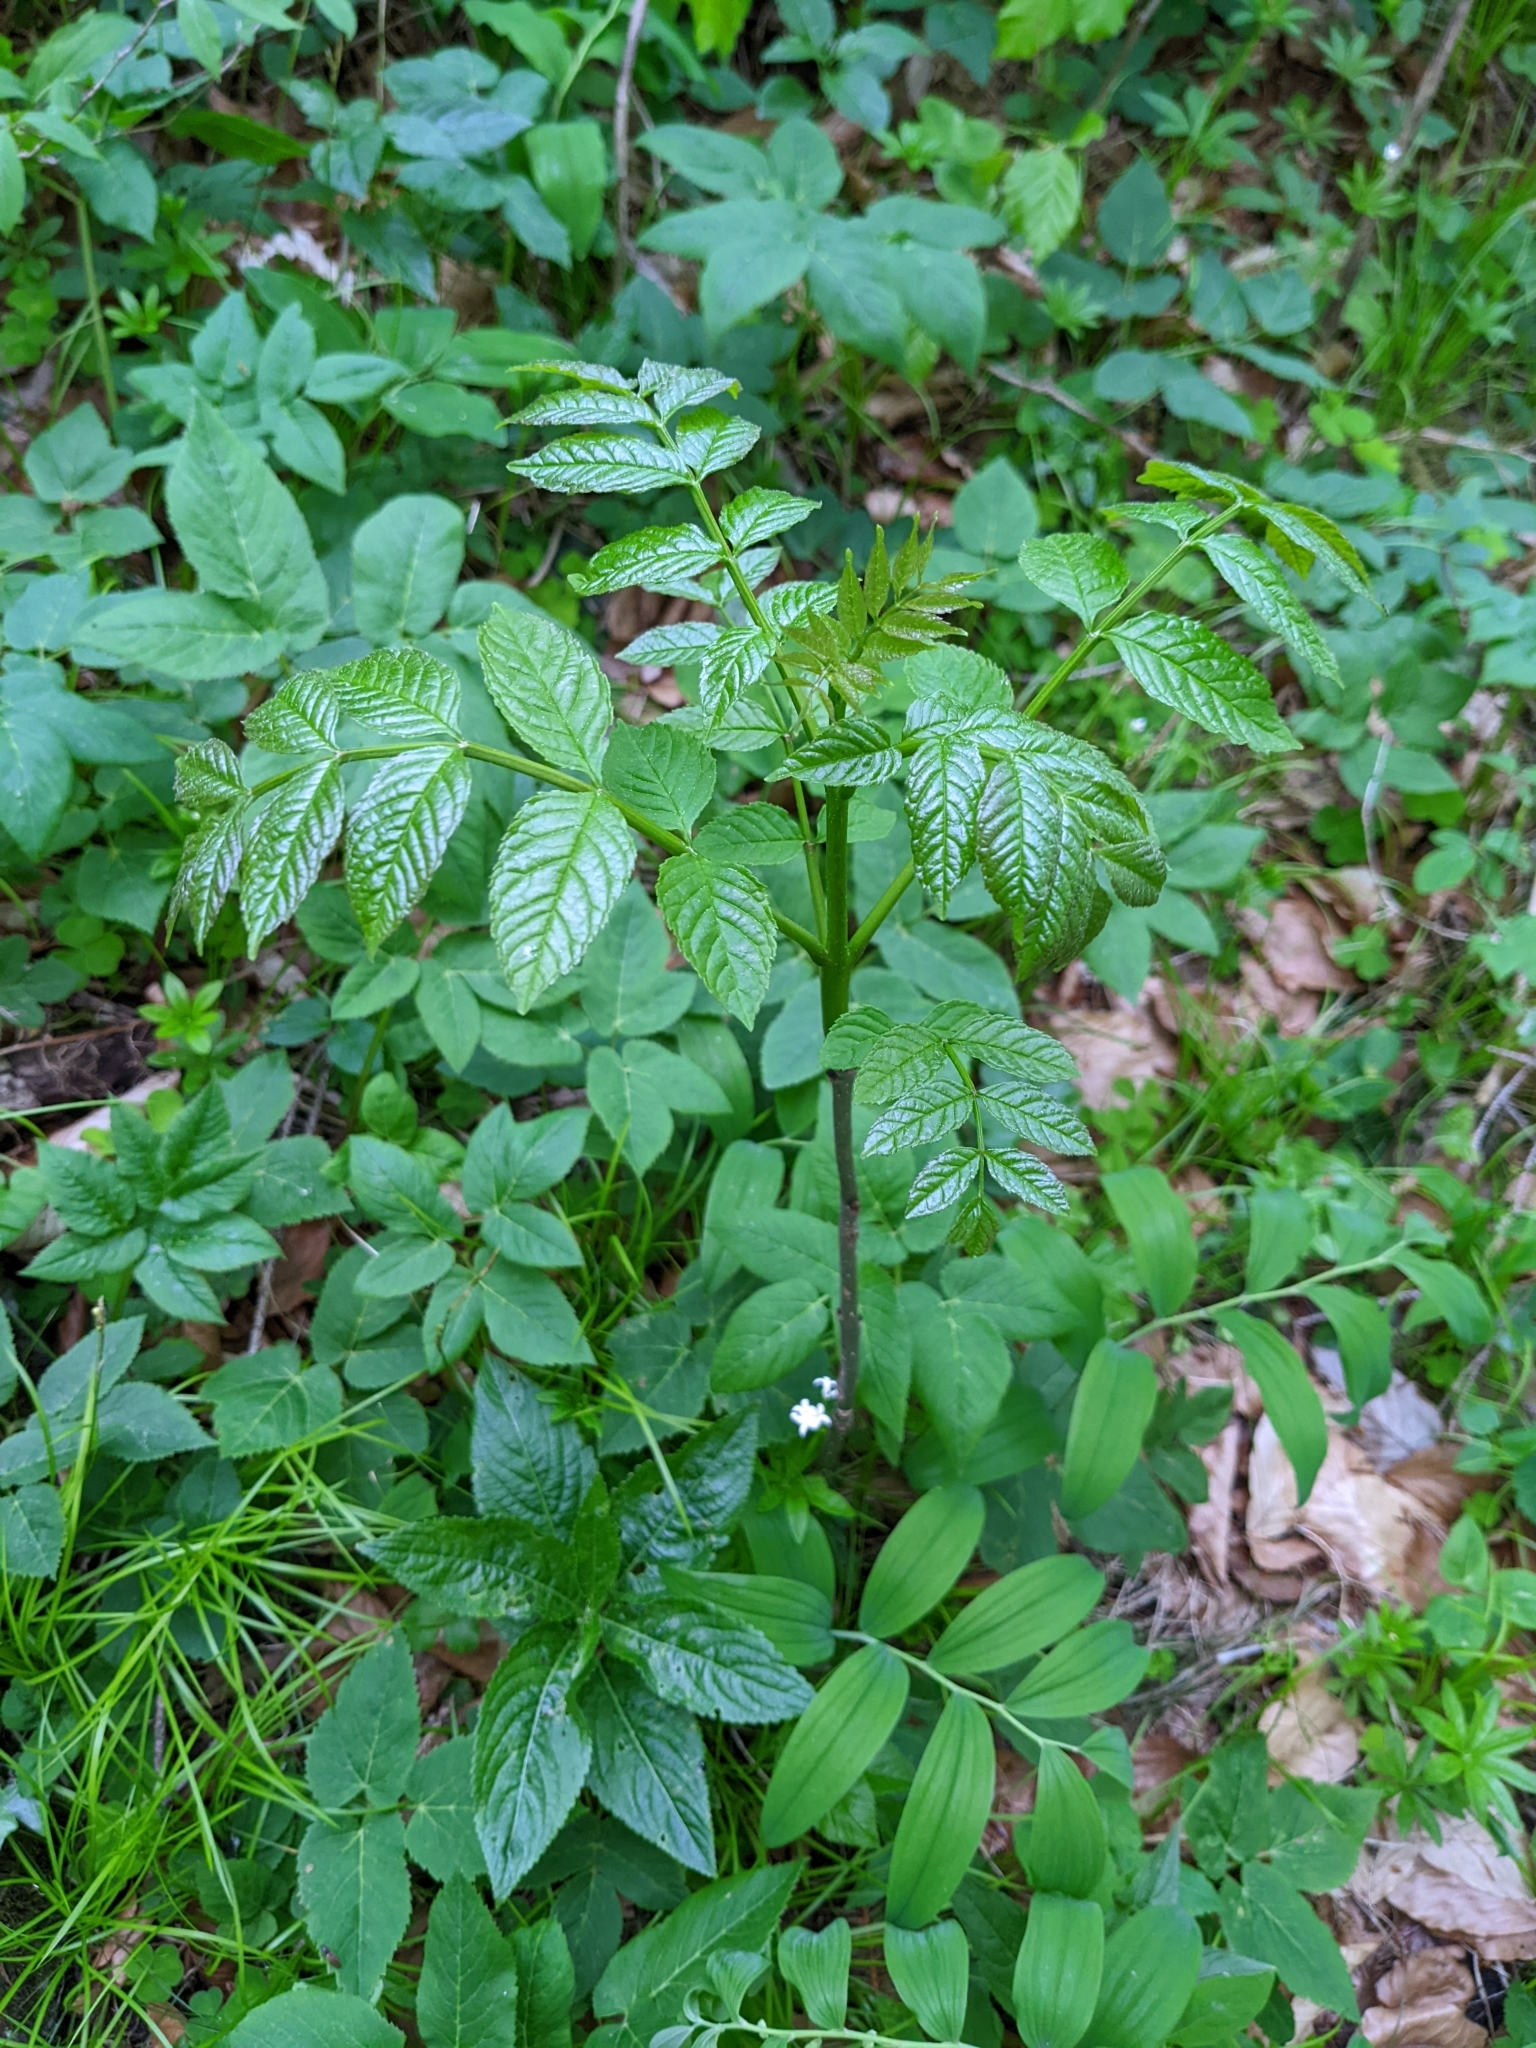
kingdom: Plantae
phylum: Tracheophyta
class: Magnoliopsida
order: Lamiales
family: Oleaceae
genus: Fraxinus
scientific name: Fraxinus excelsior
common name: European ash
